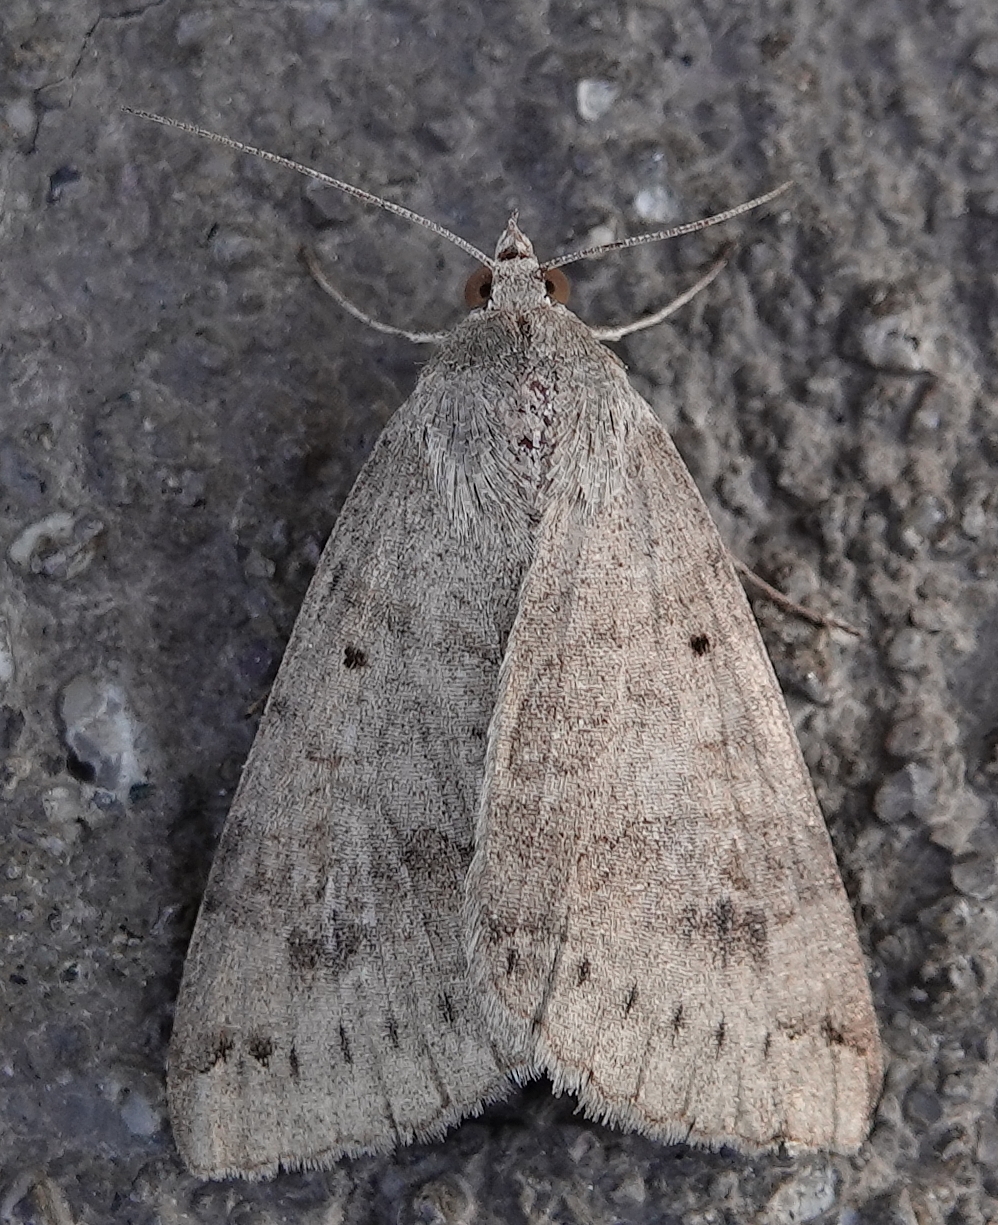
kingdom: Animalia
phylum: Arthropoda
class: Insecta
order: Lepidoptera
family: Erebidae
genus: Caenurgina
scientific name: Caenurgina erechtea
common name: Forage looper moth
